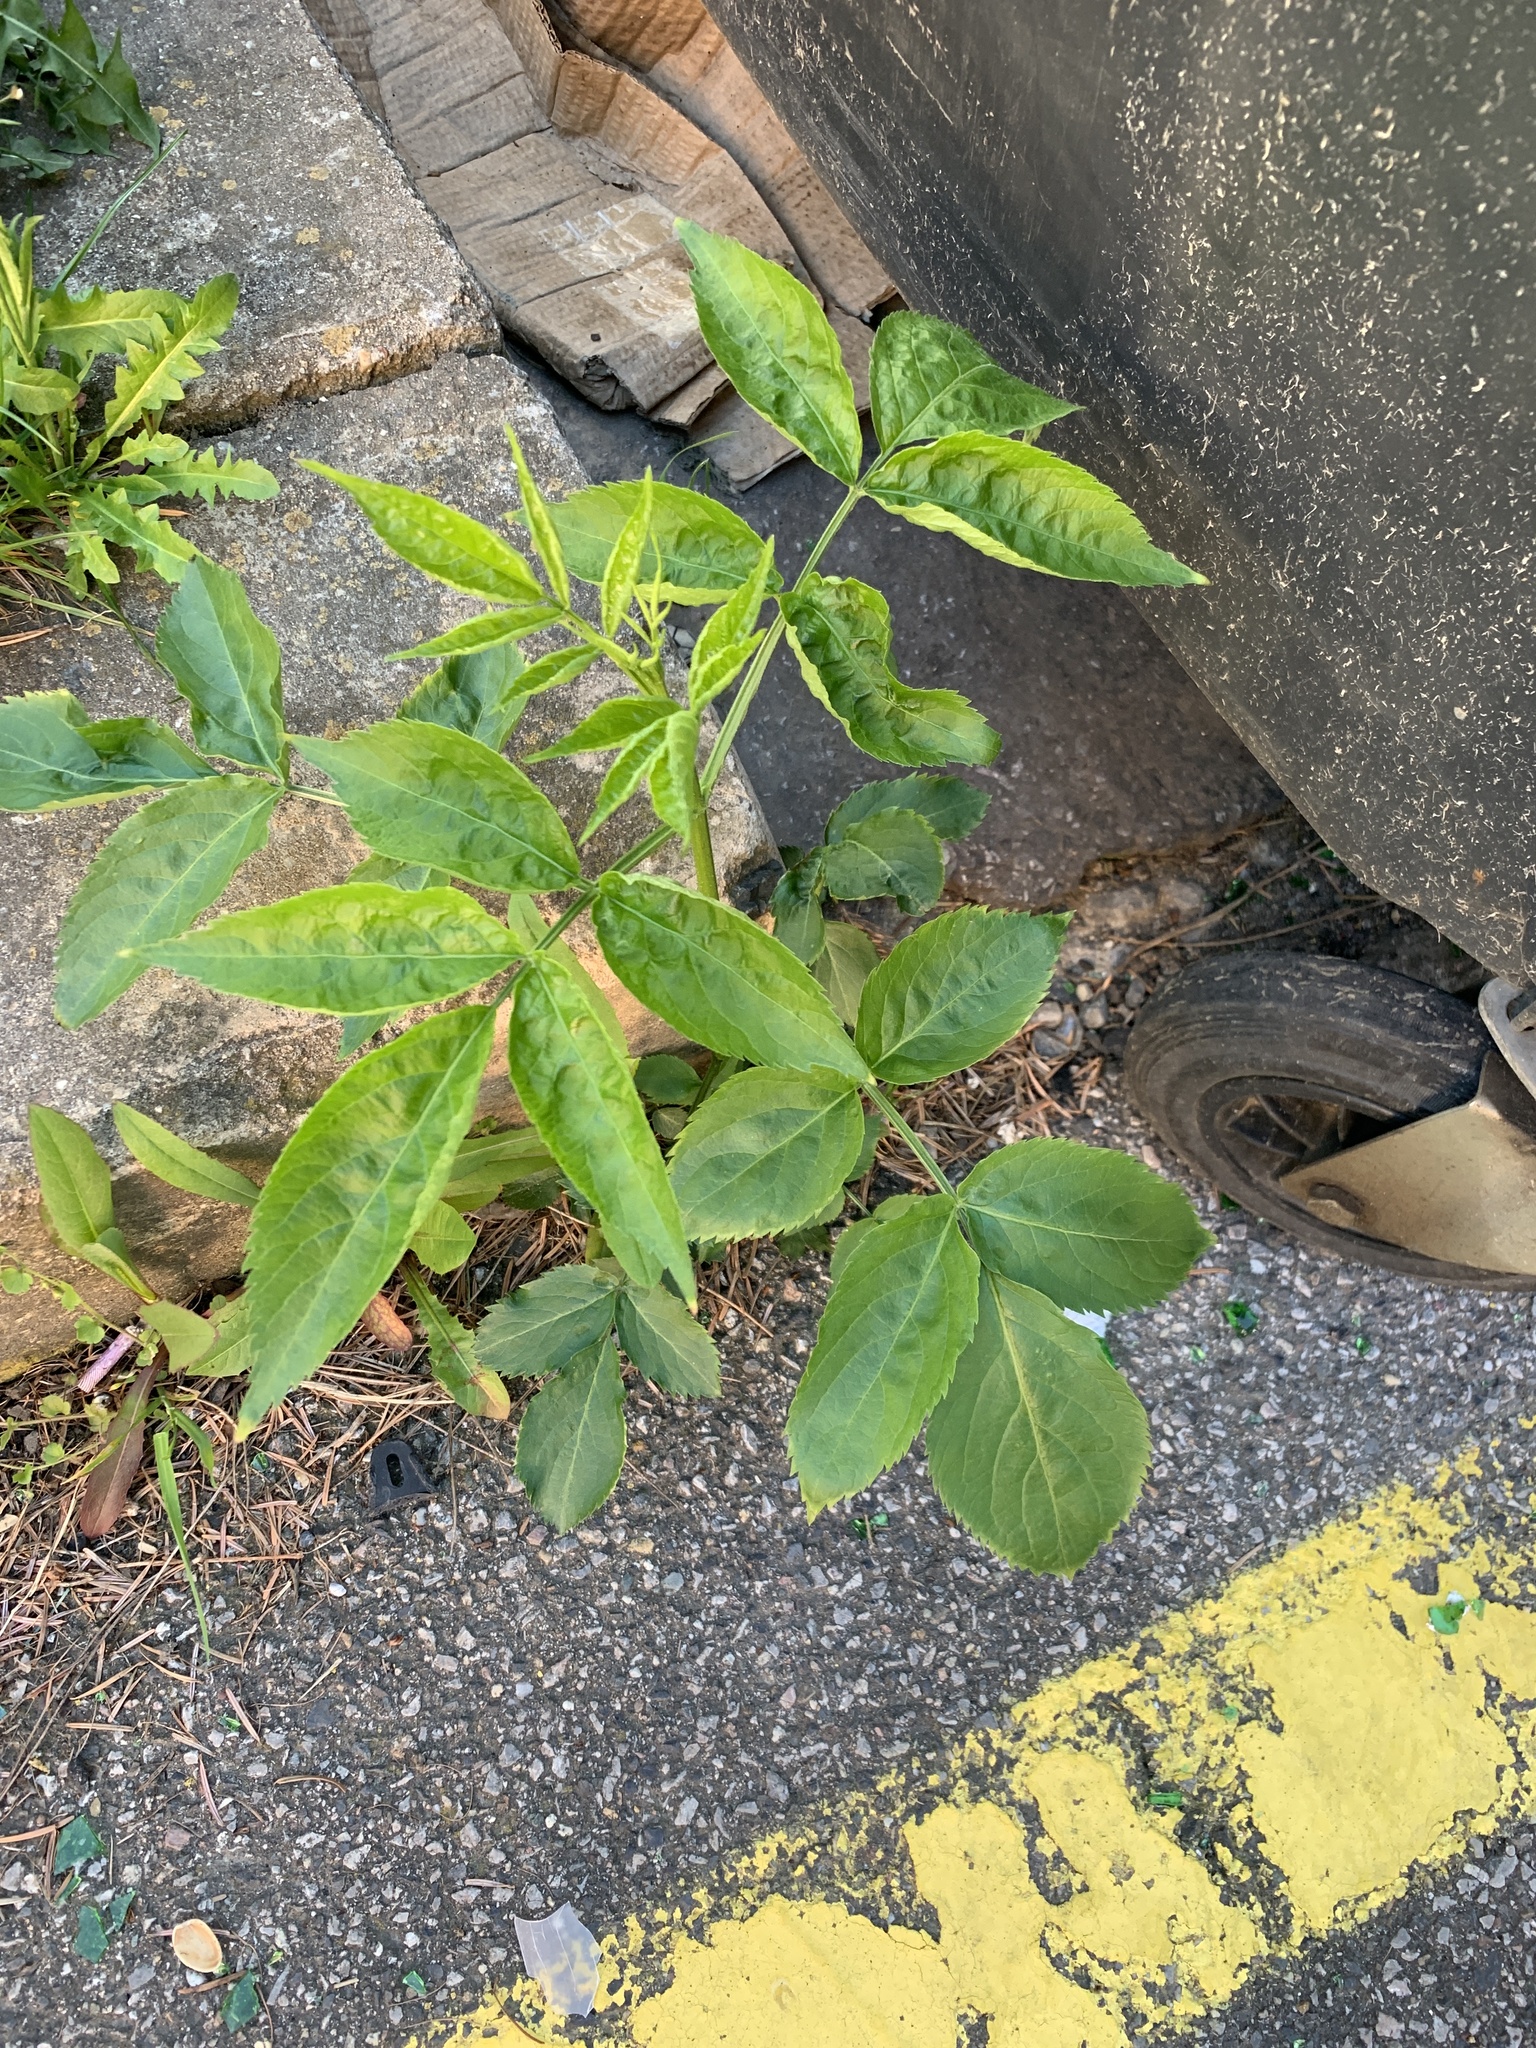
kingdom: Plantae
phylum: Tracheophyta
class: Magnoliopsida
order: Dipsacales
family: Viburnaceae
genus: Sambucus
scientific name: Sambucus nigra
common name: Elder
